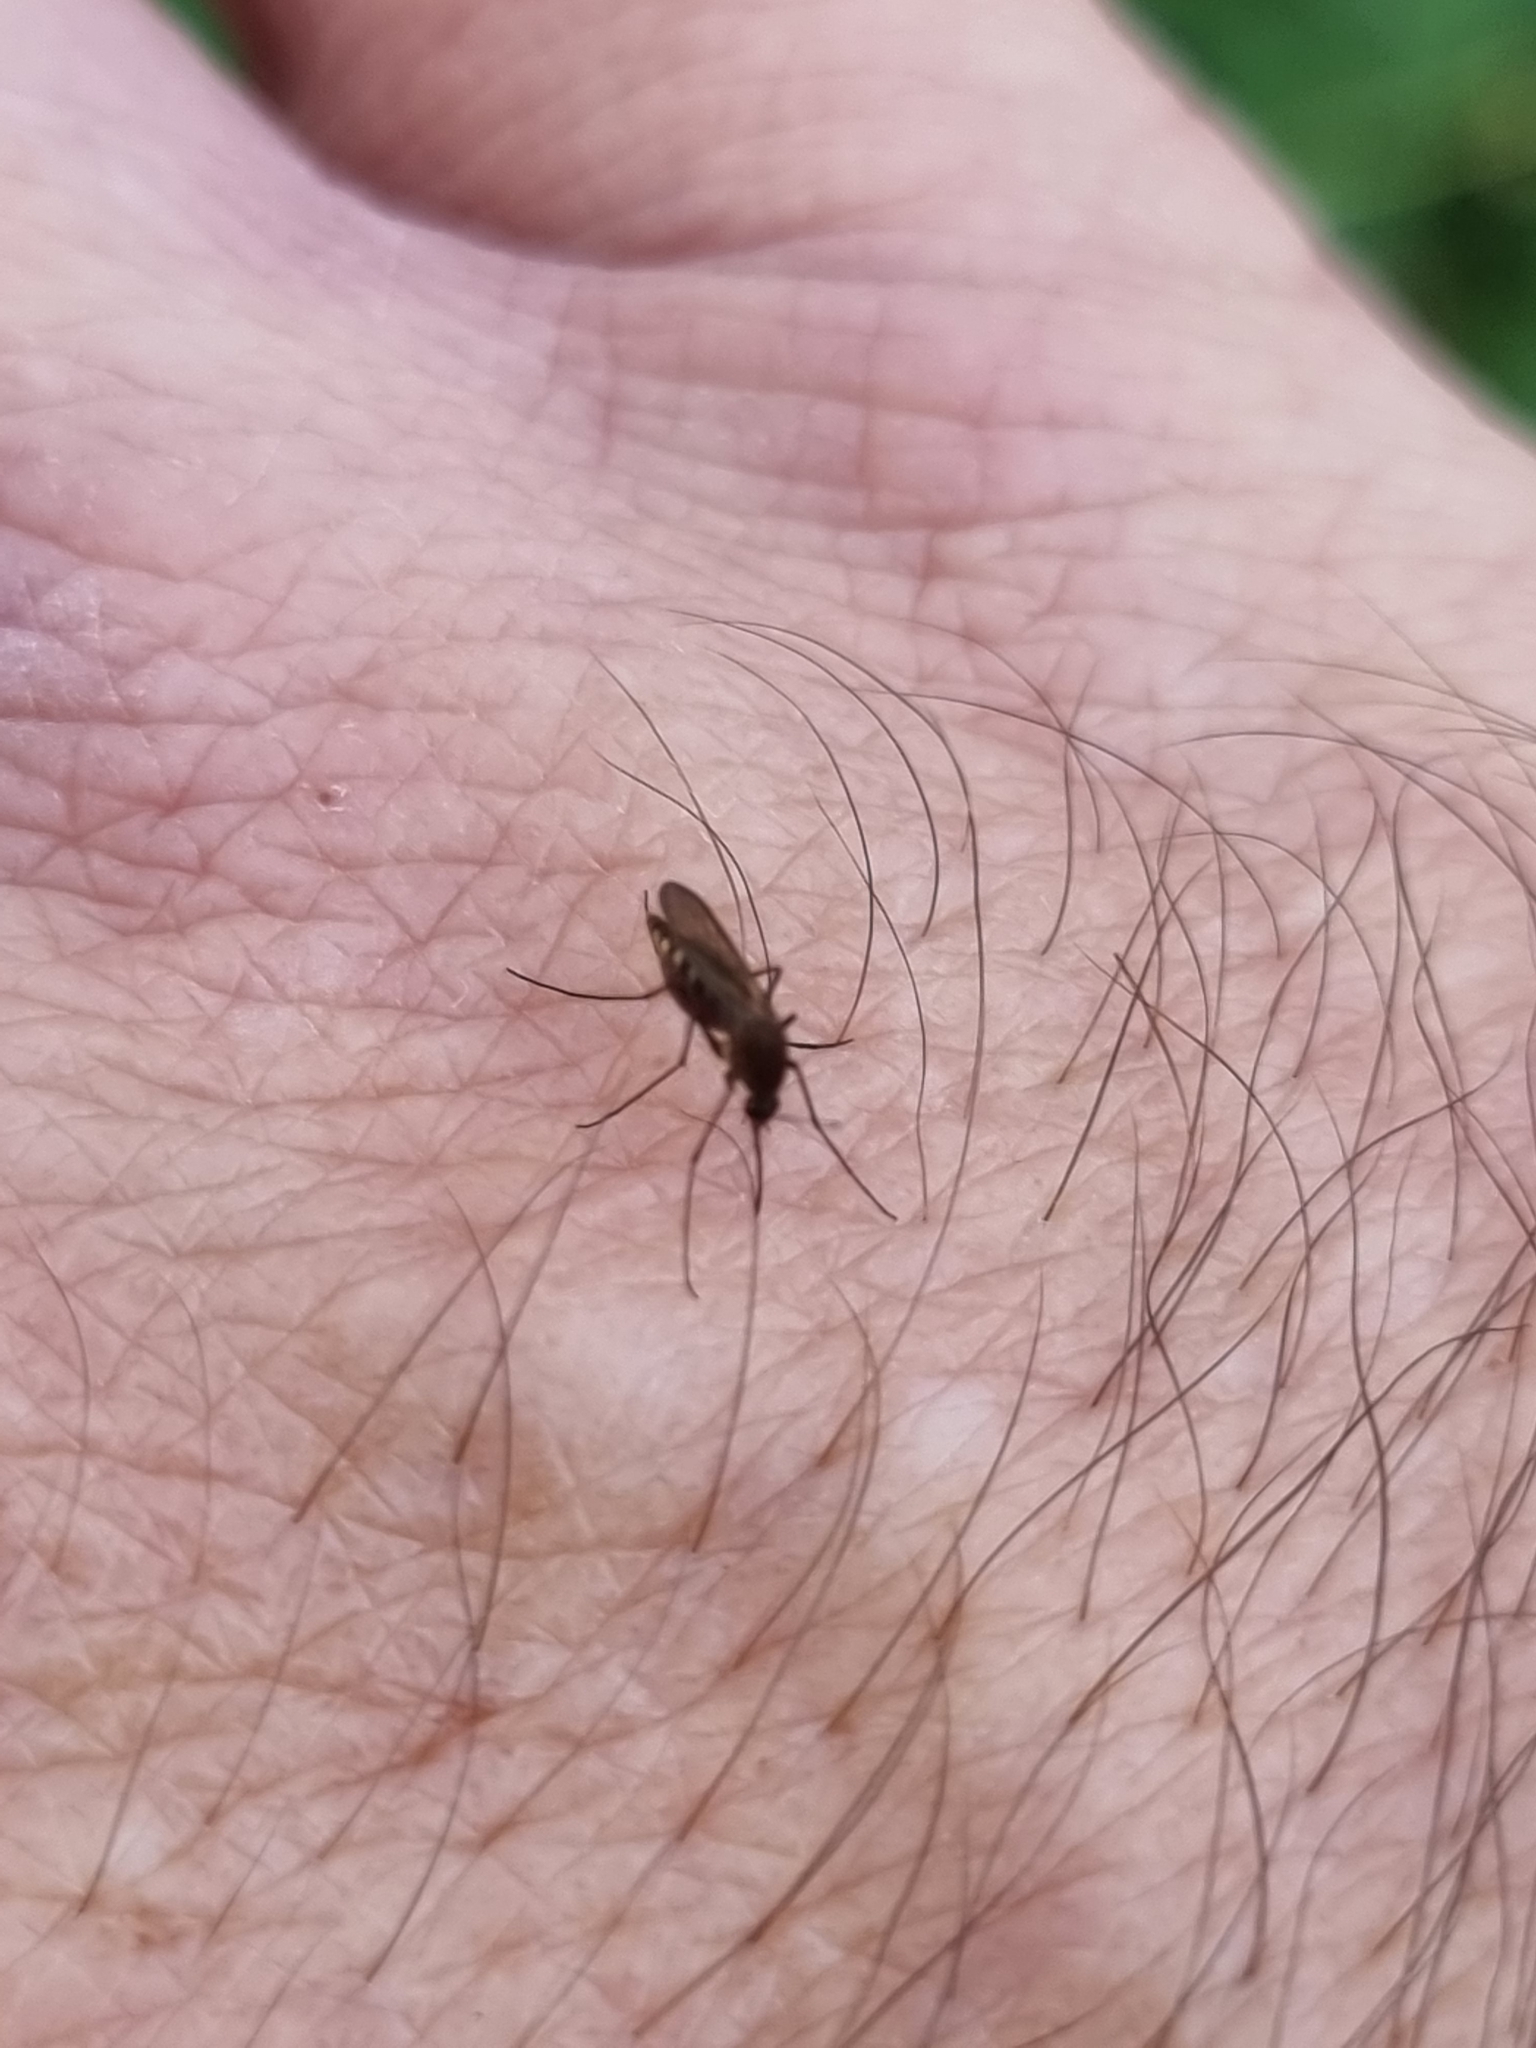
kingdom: Animalia
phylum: Arthropoda
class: Insecta
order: Diptera
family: Culicidae
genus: Aedes
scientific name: Aedes vigilax
